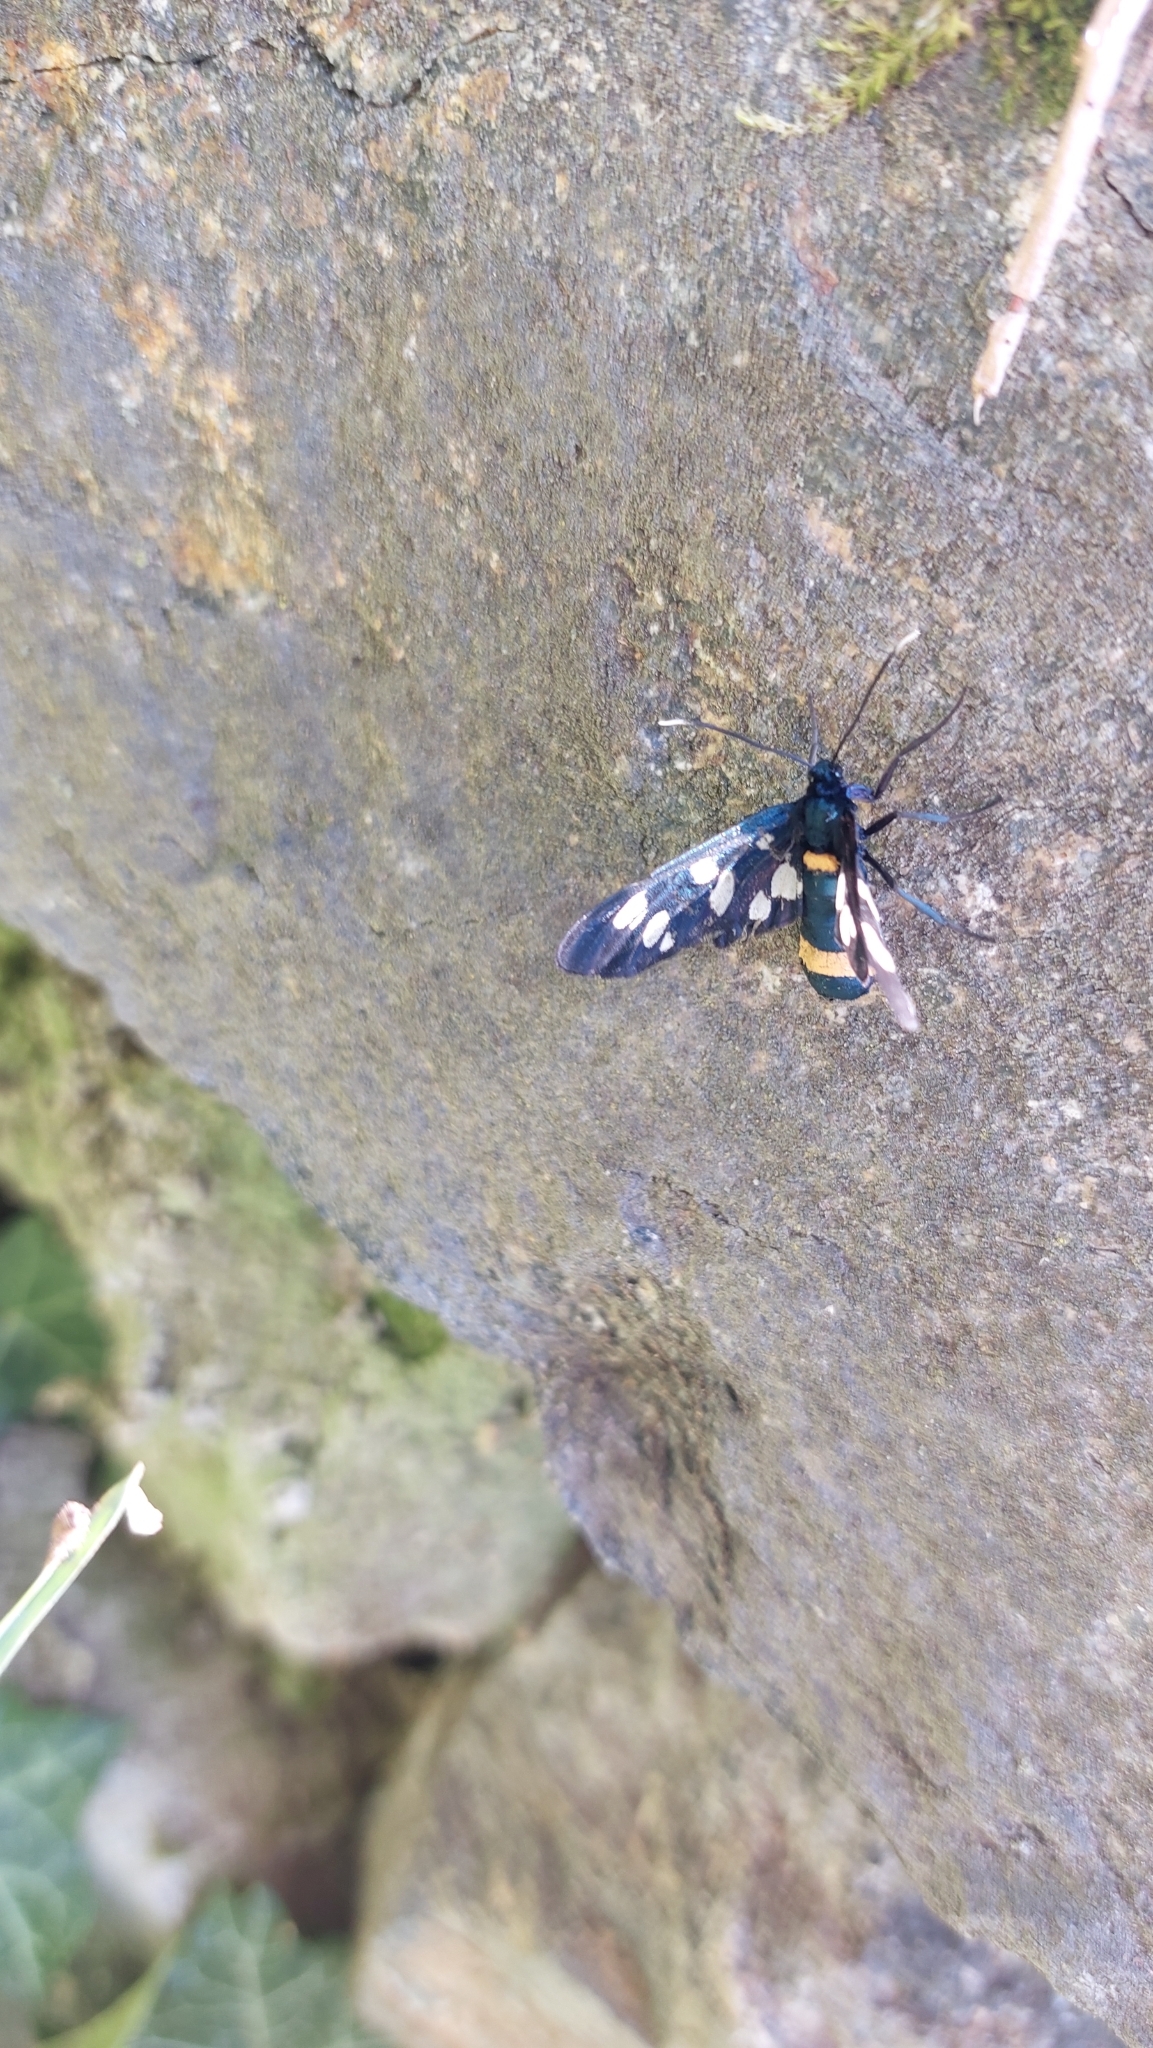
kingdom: Animalia
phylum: Arthropoda
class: Insecta
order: Lepidoptera
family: Erebidae
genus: Amata
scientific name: Amata phegea
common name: Nine-spotted
